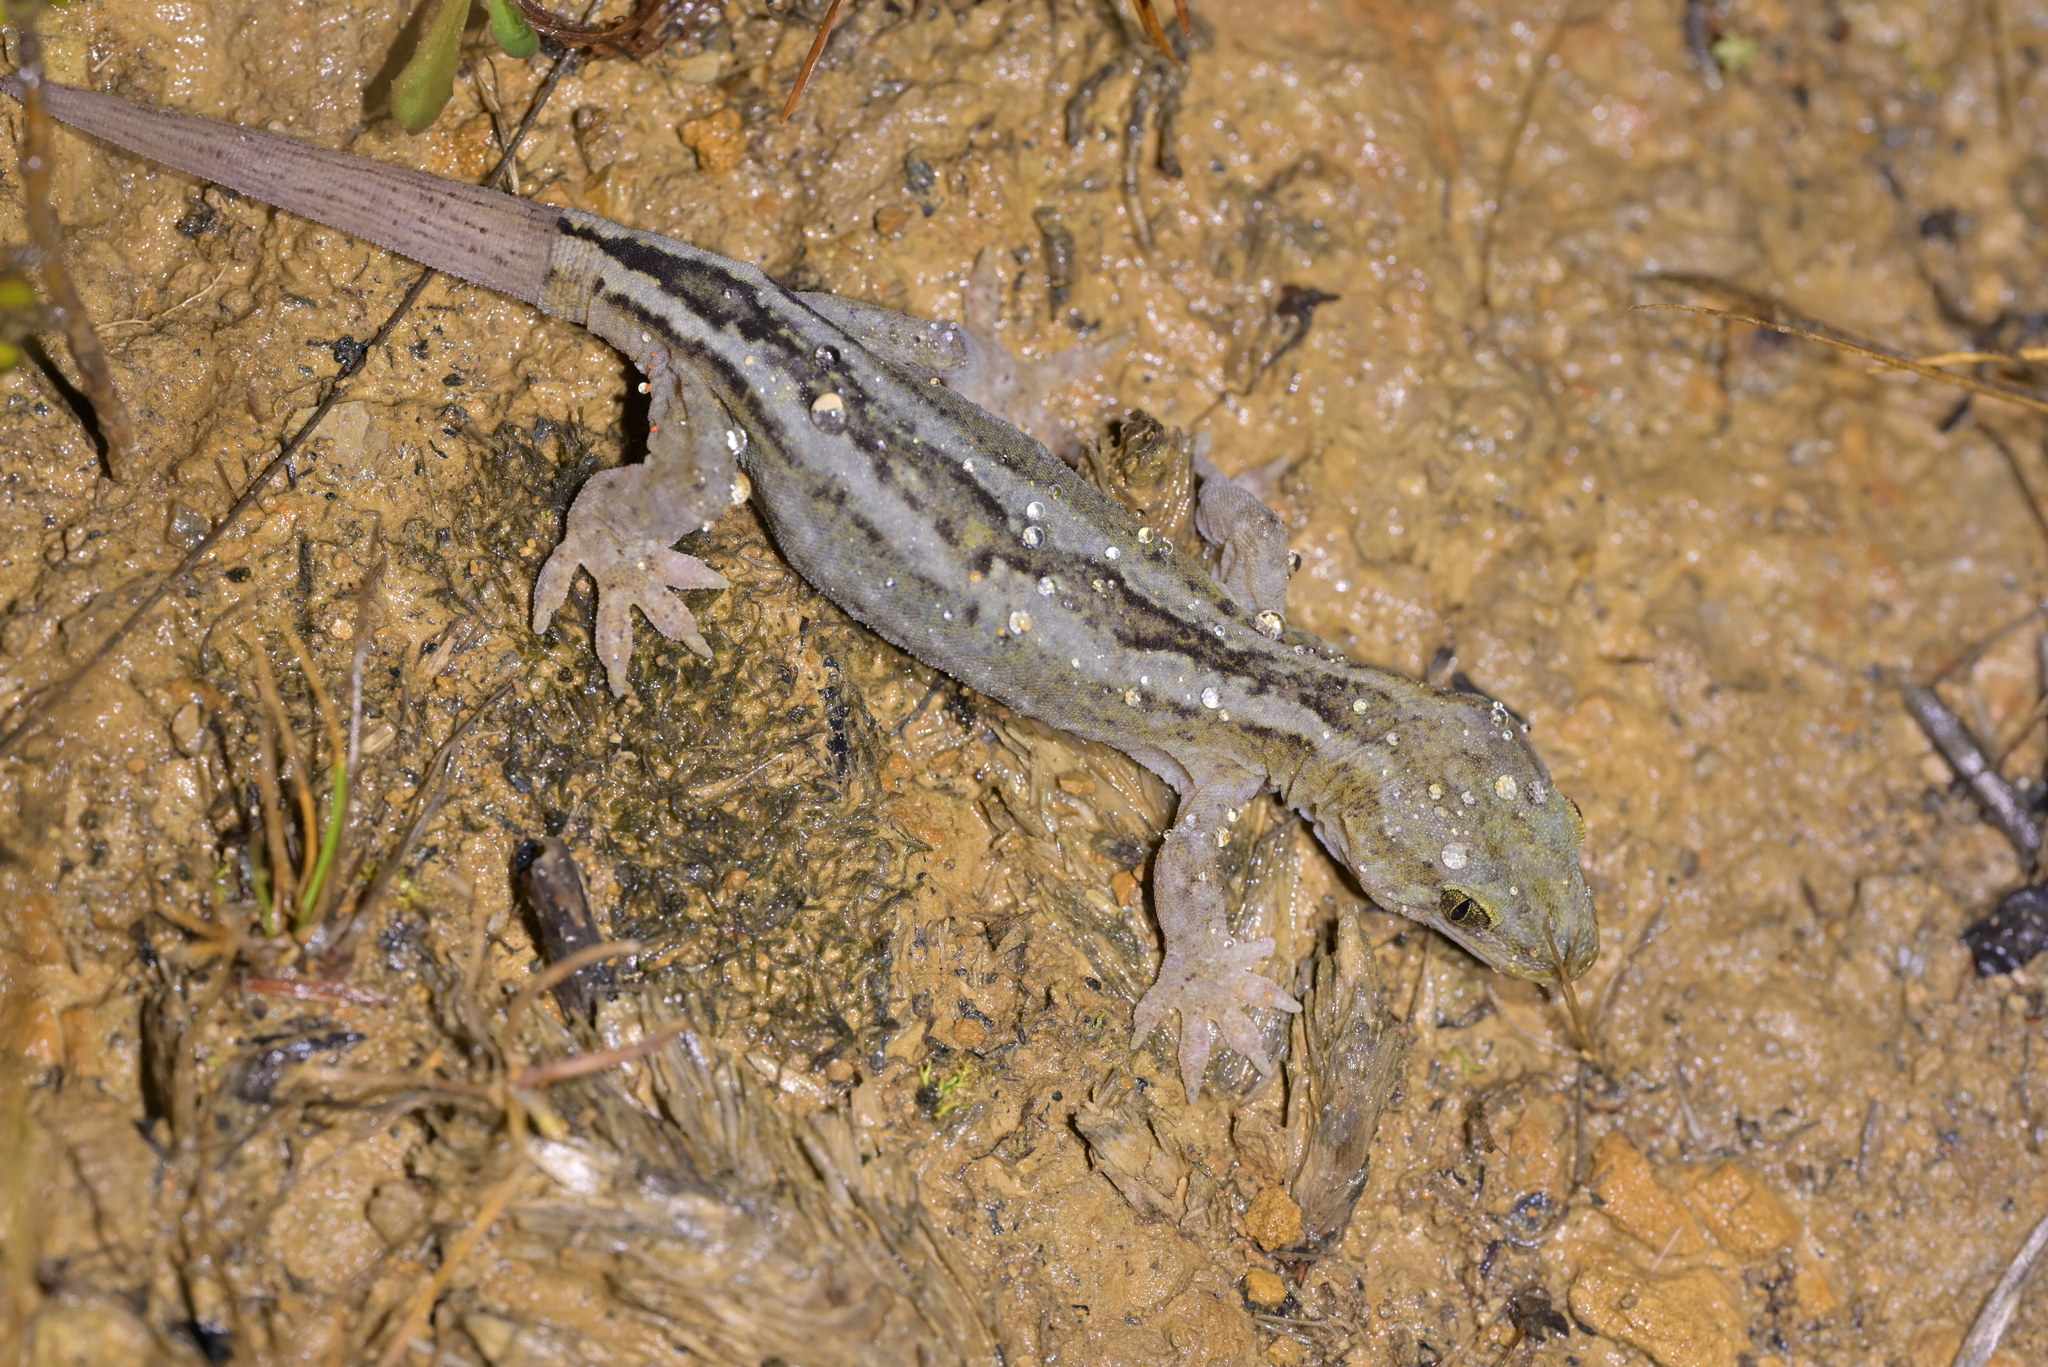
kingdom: Animalia
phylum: Chordata
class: Squamata
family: Diplodactylidae
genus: Woodworthia
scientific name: Woodworthia maculata
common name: Raukawa gecko
